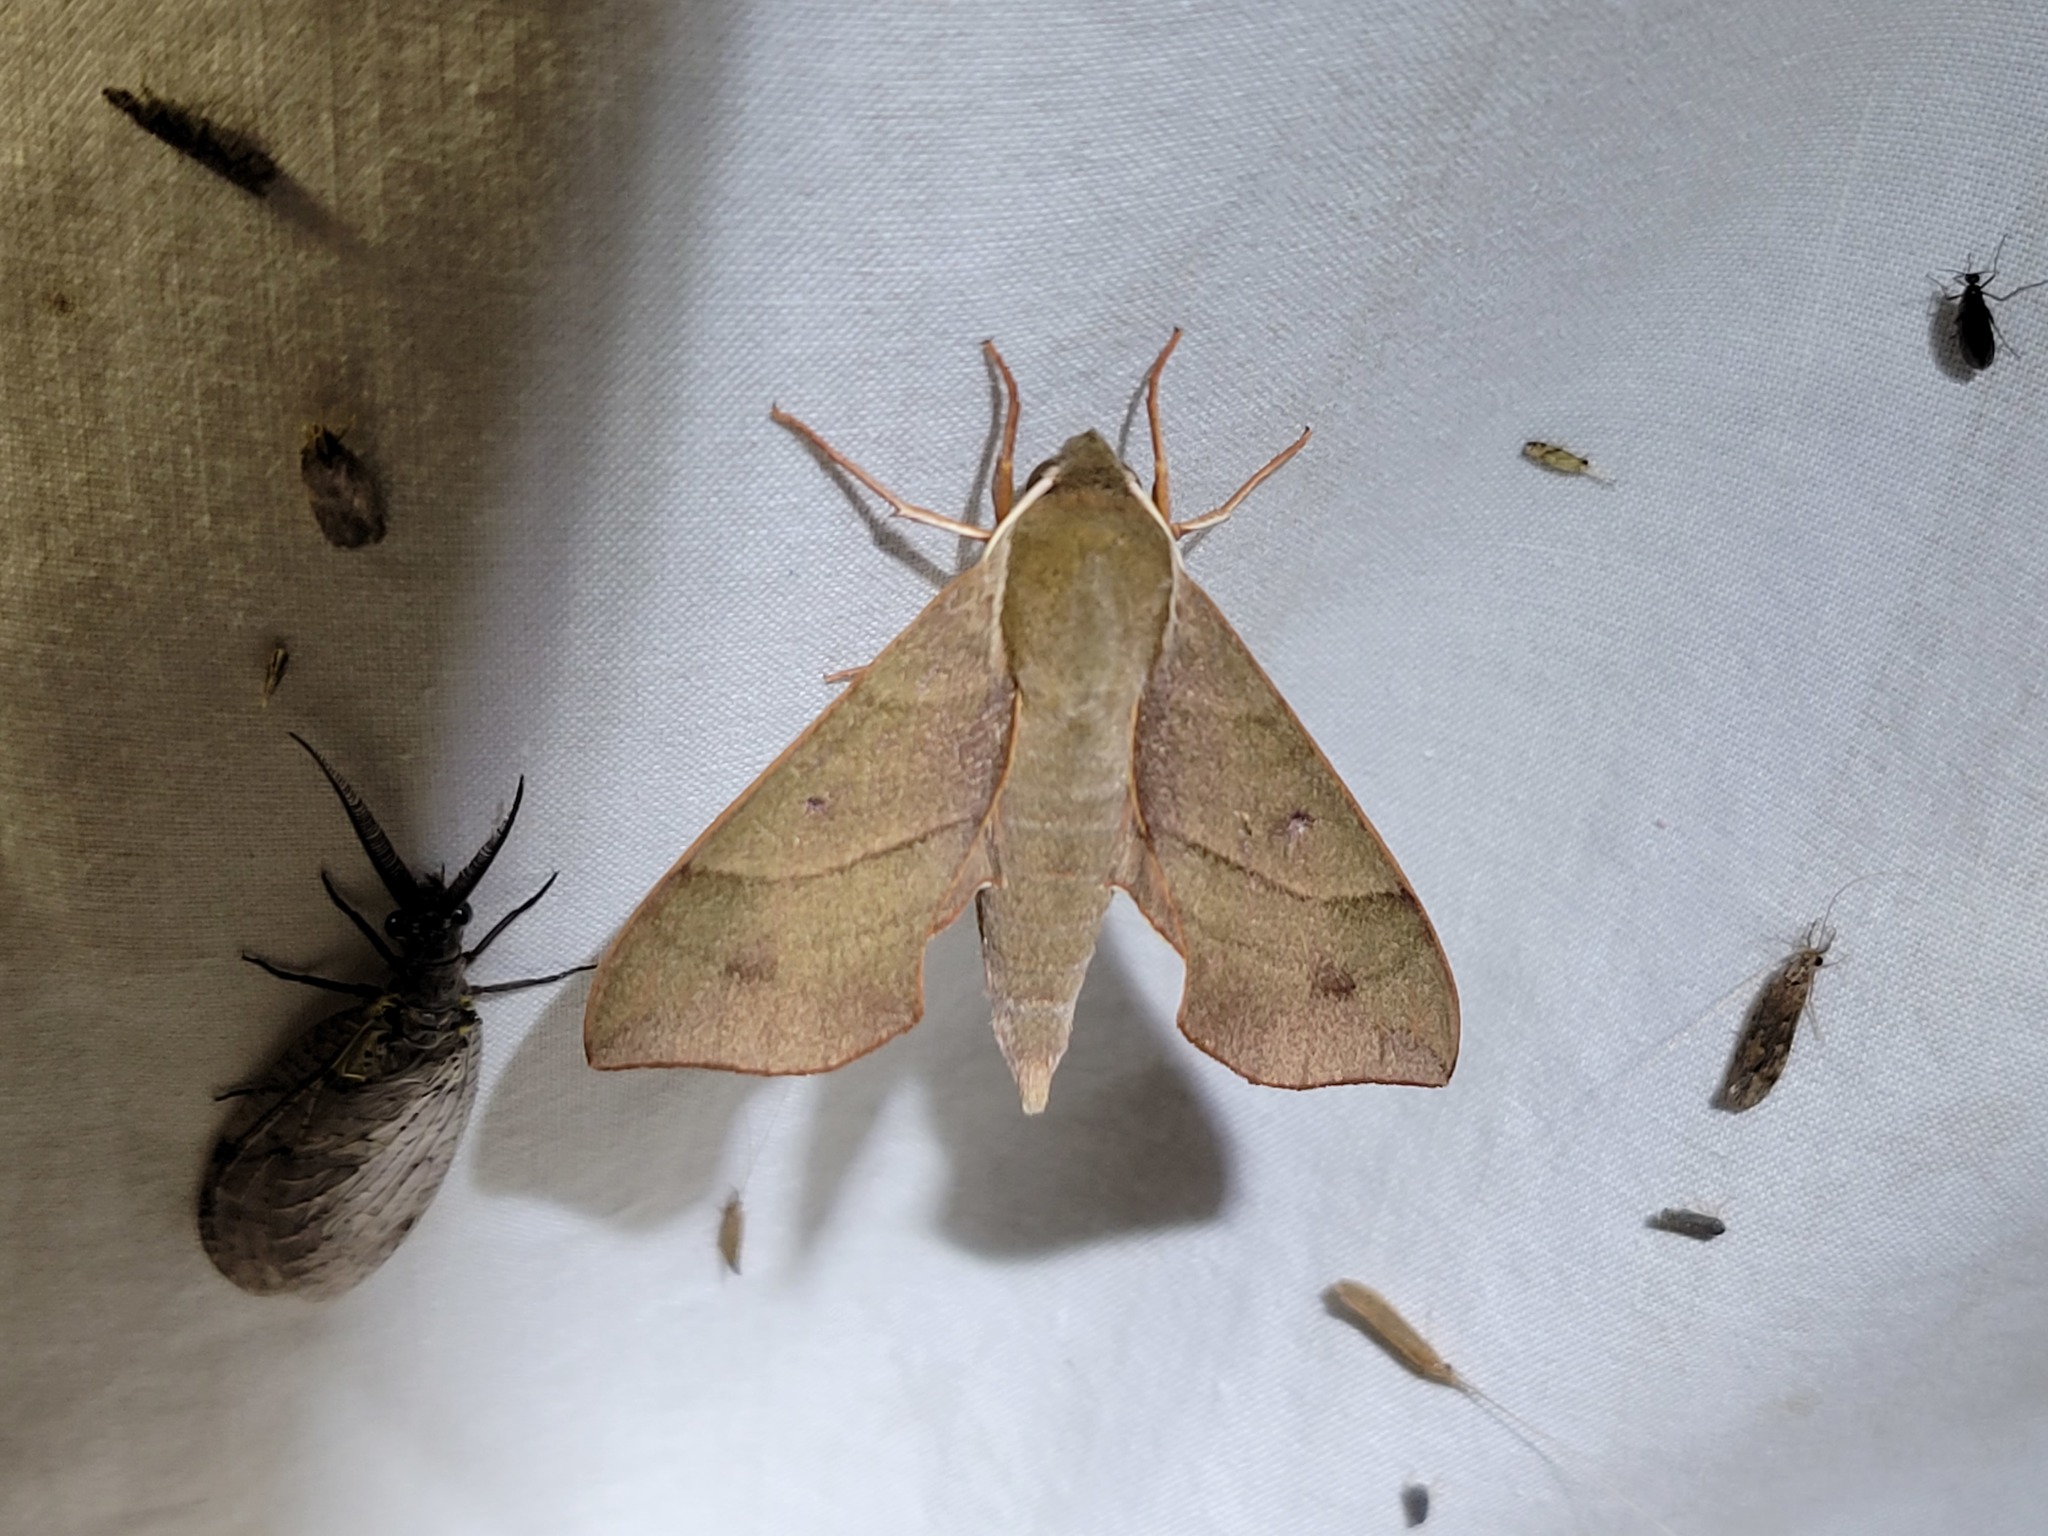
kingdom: Animalia
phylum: Arthropoda
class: Insecta
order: Lepidoptera
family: Sphingidae
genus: Darapsa
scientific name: Darapsa myron
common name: Hog sphinx
